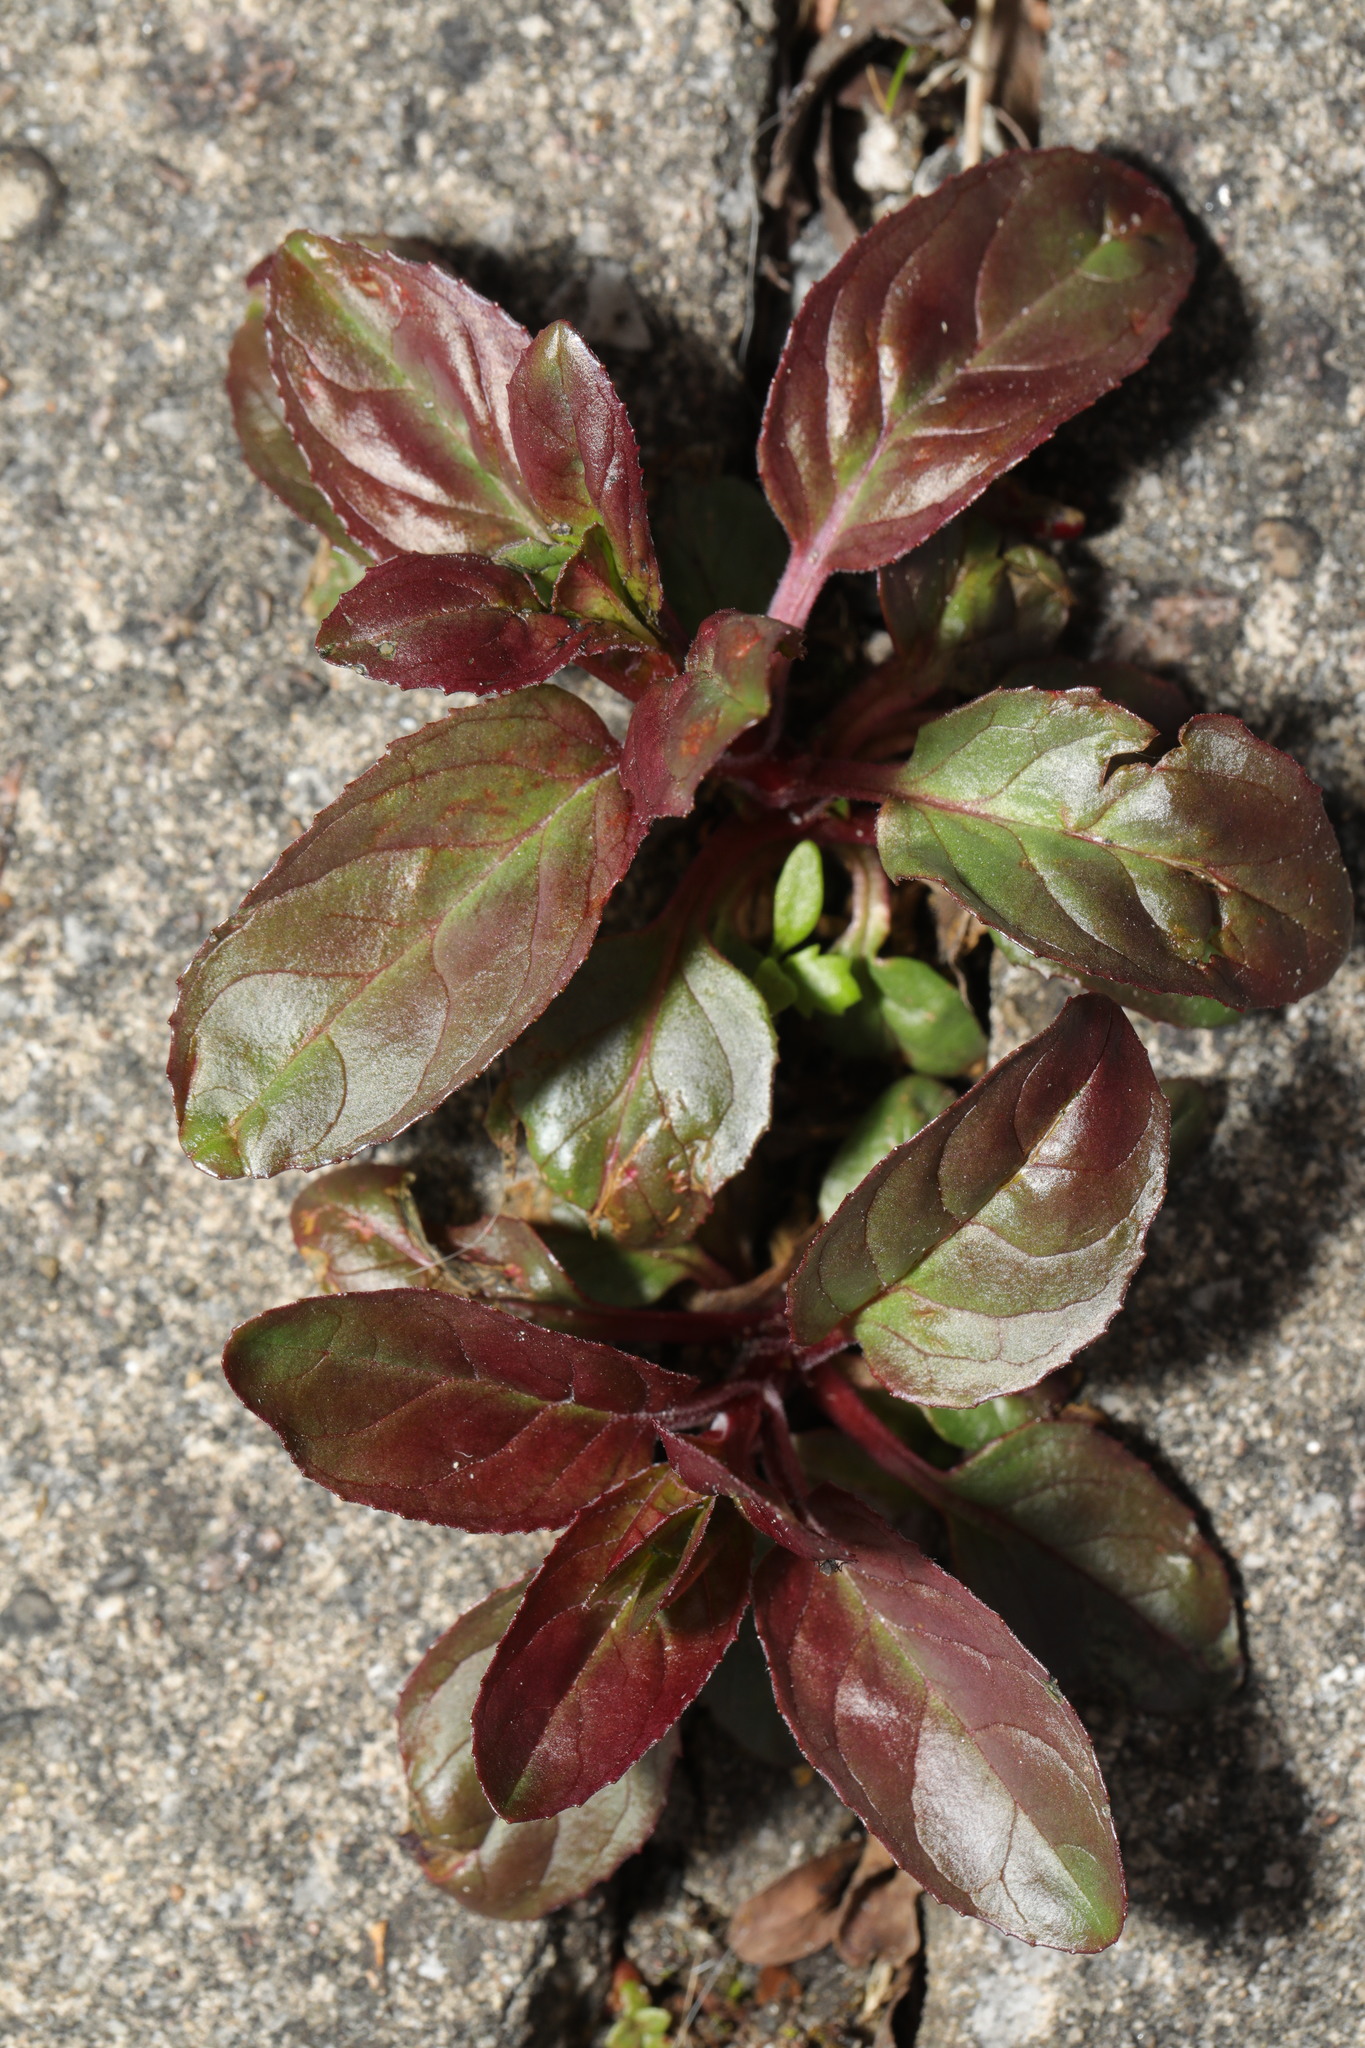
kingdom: Plantae
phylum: Tracheophyta
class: Magnoliopsida
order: Myrtales
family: Onagraceae
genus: Epilobium
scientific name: Epilobium roseum
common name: Pale willowherb
